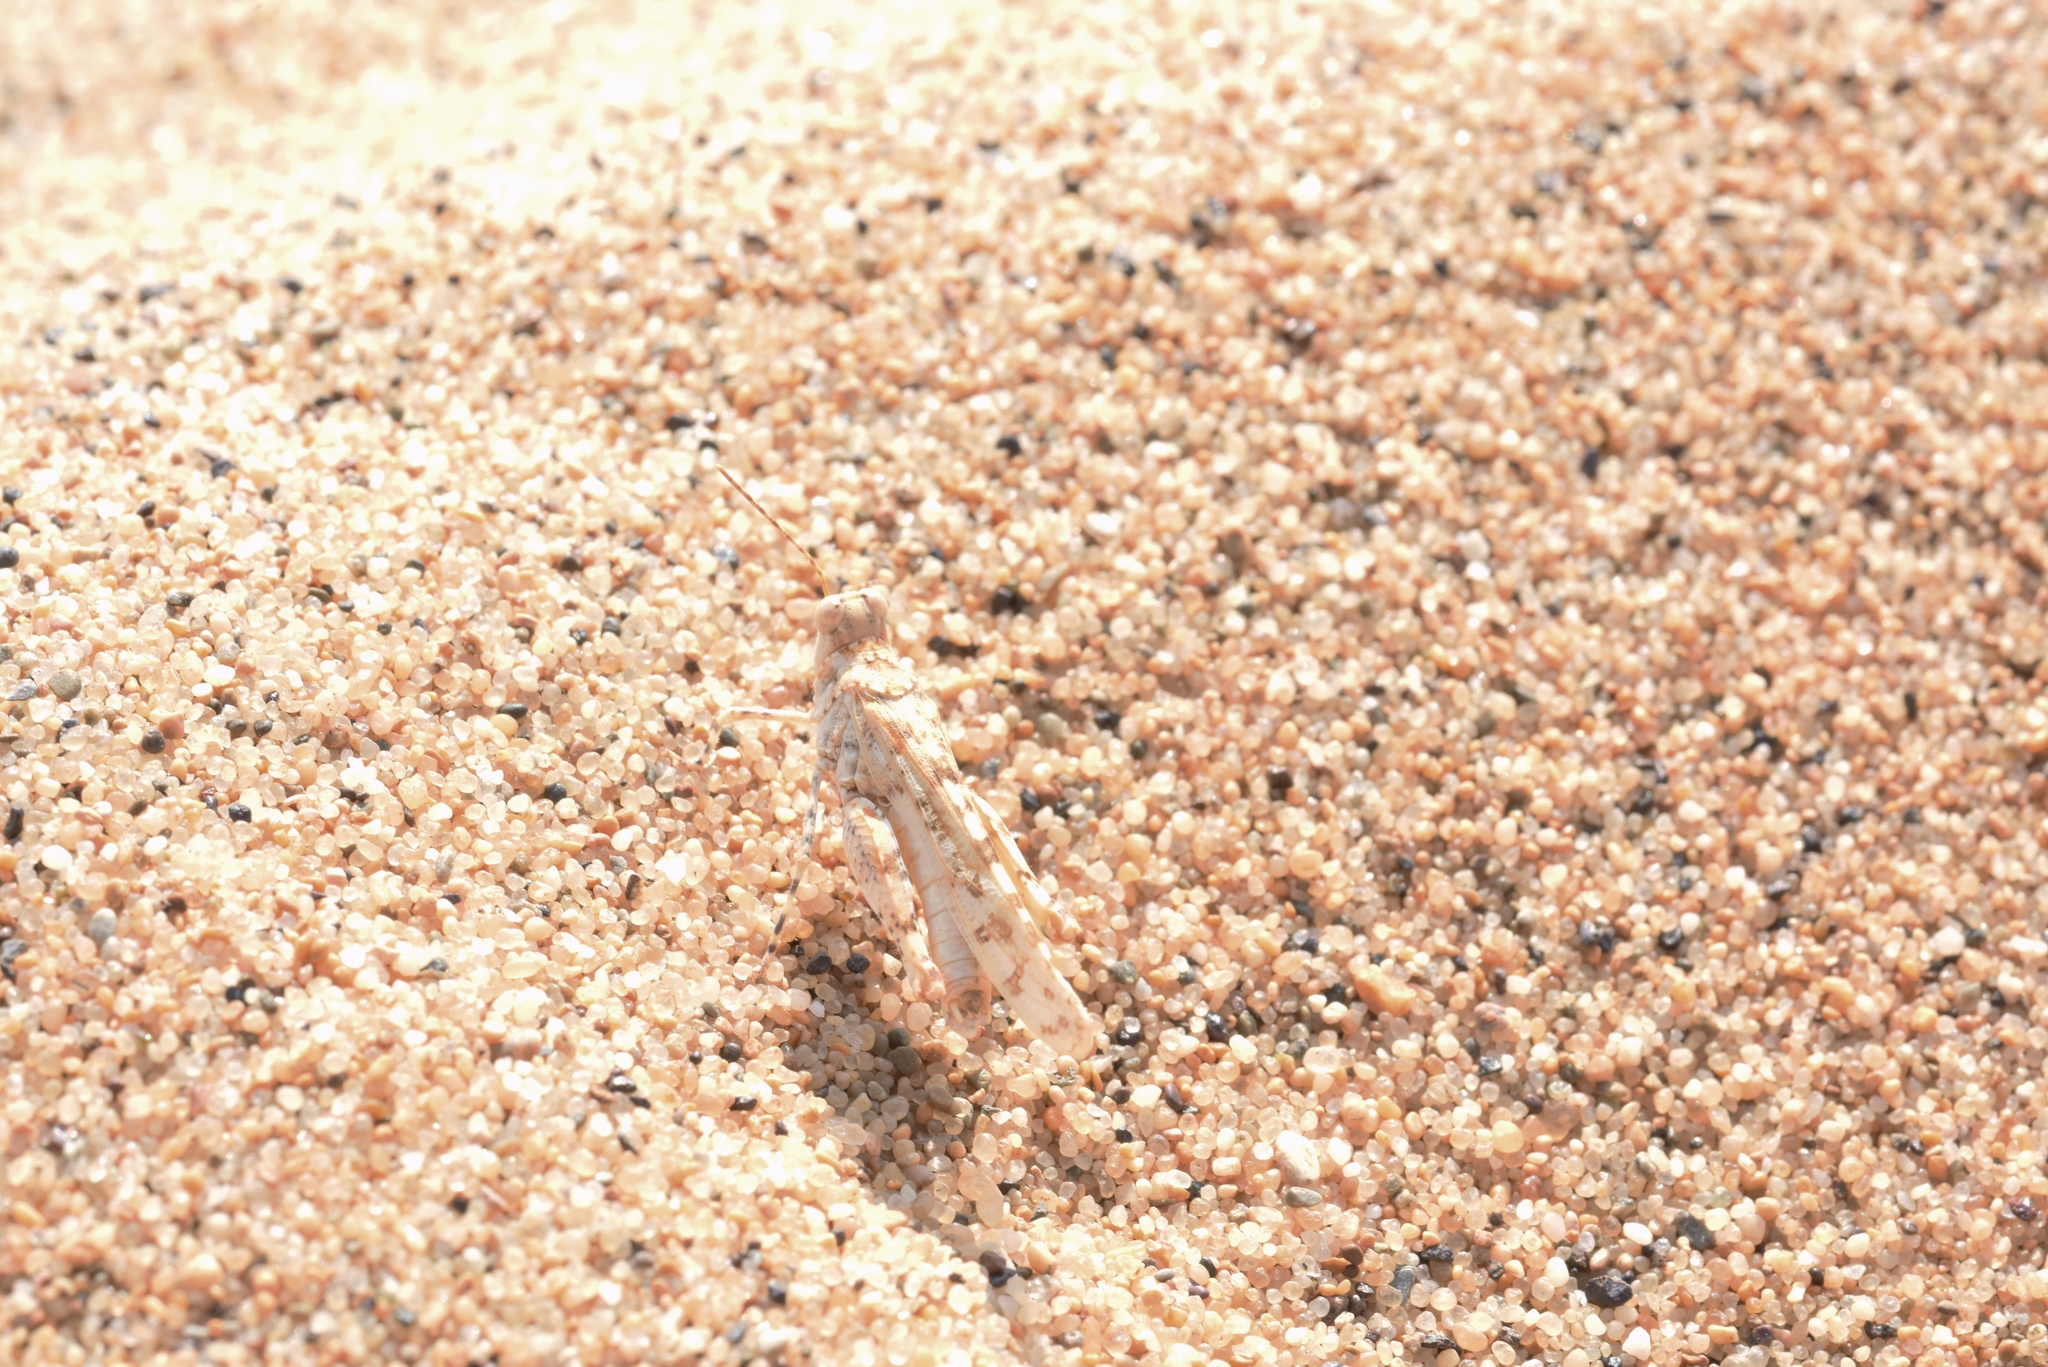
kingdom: Animalia
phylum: Arthropoda
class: Insecta
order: Orthoptera
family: Acrididae
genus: Sphingonotus
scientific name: Sphingonotus candidus
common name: Whitish sand grasshopper
